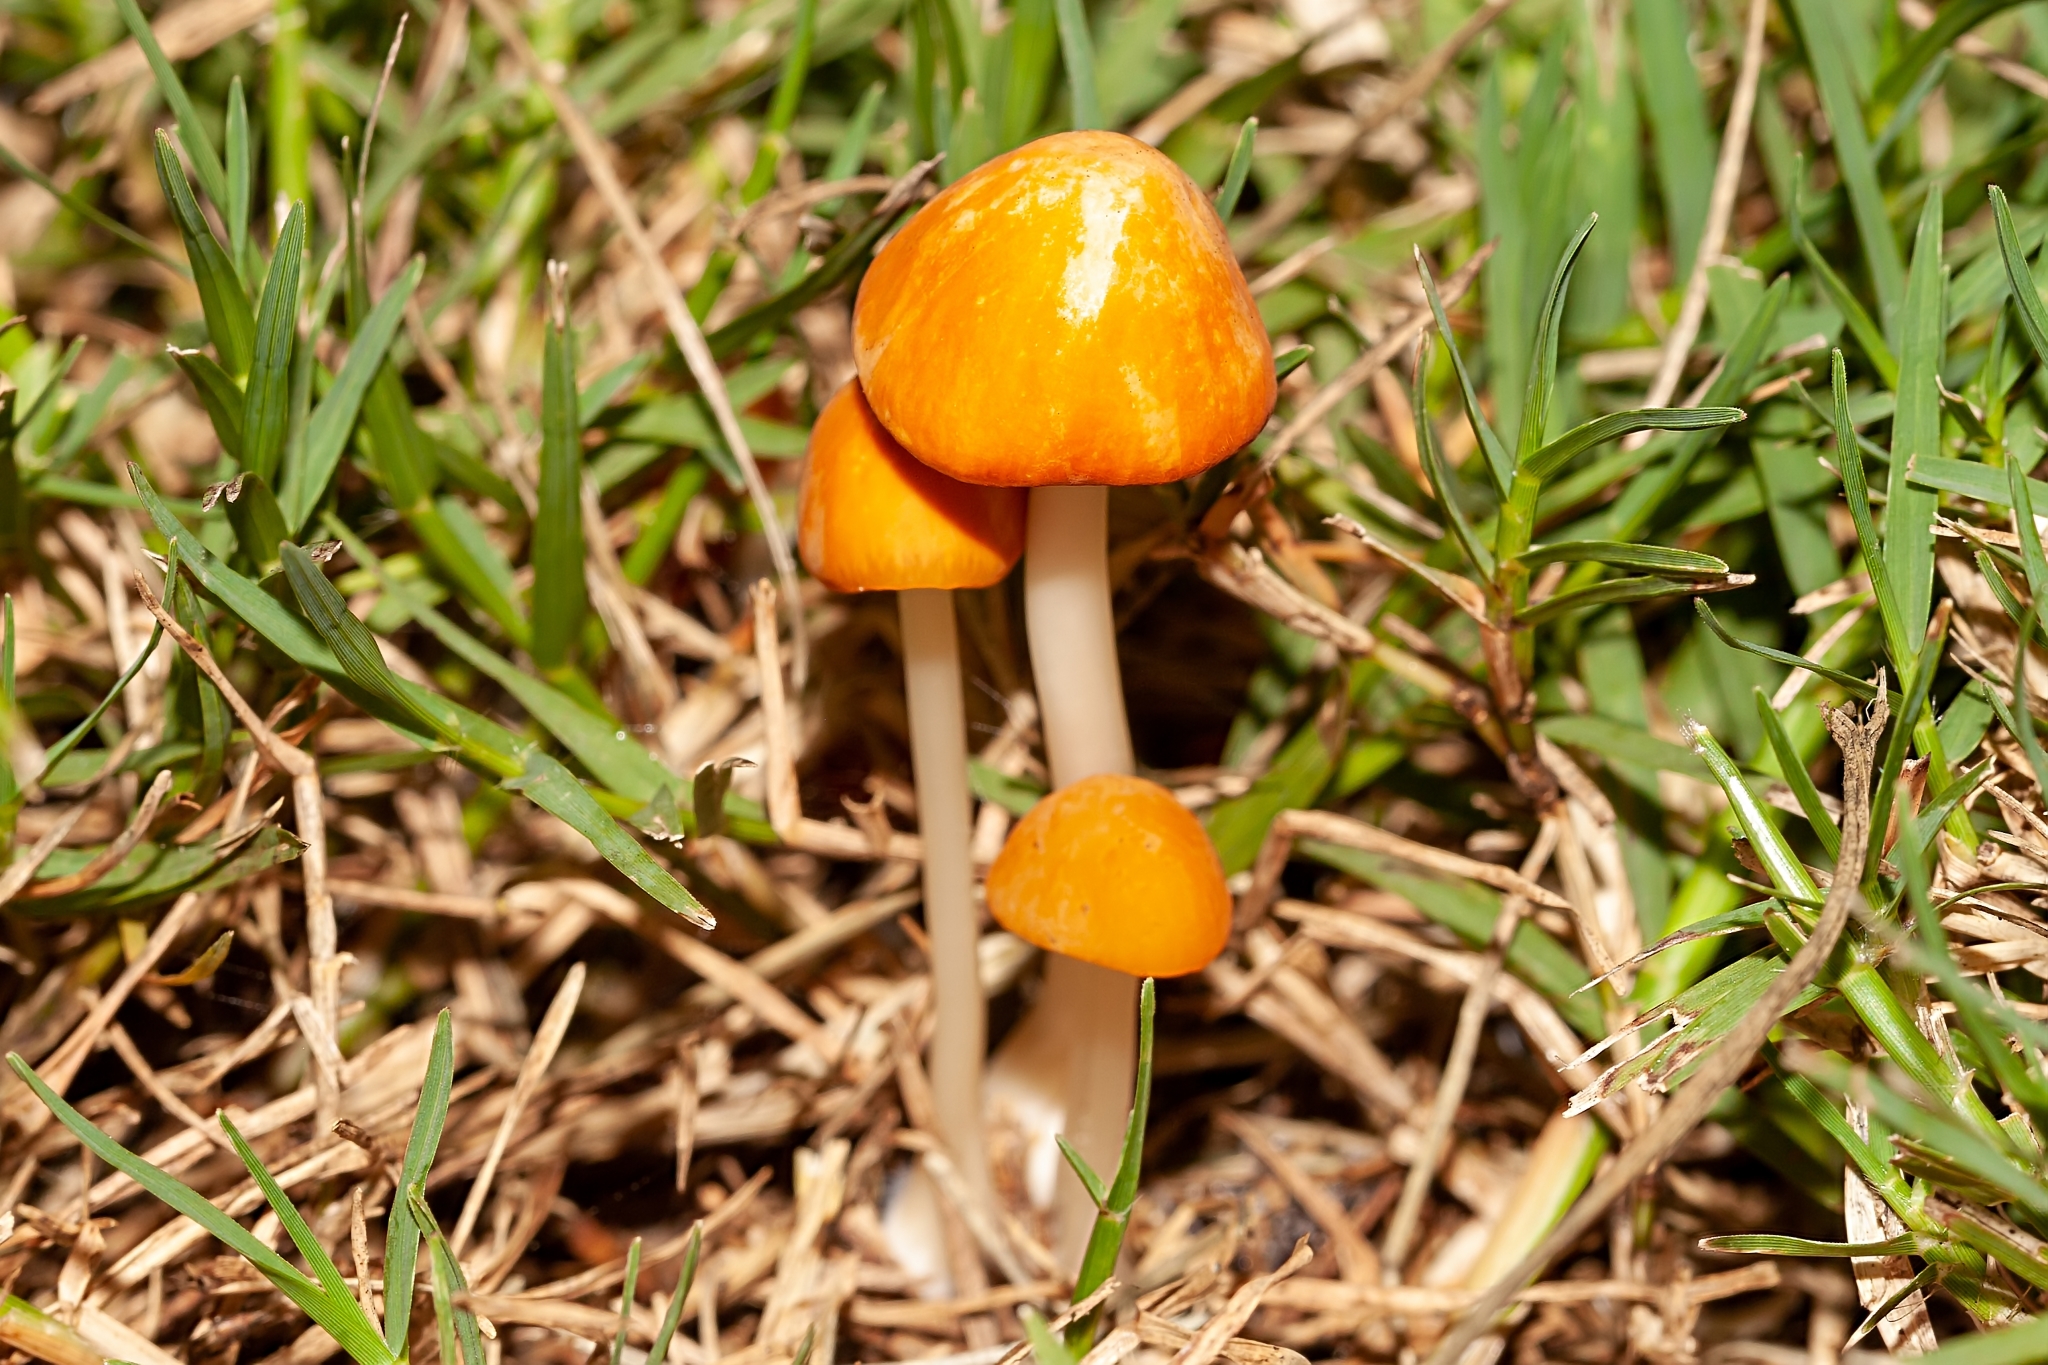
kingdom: Fungi
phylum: Basidiomycota
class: Agaricomycetes
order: Agaricales
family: Marasmiaceae
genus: Marasmius
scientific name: Marasmius vagus
